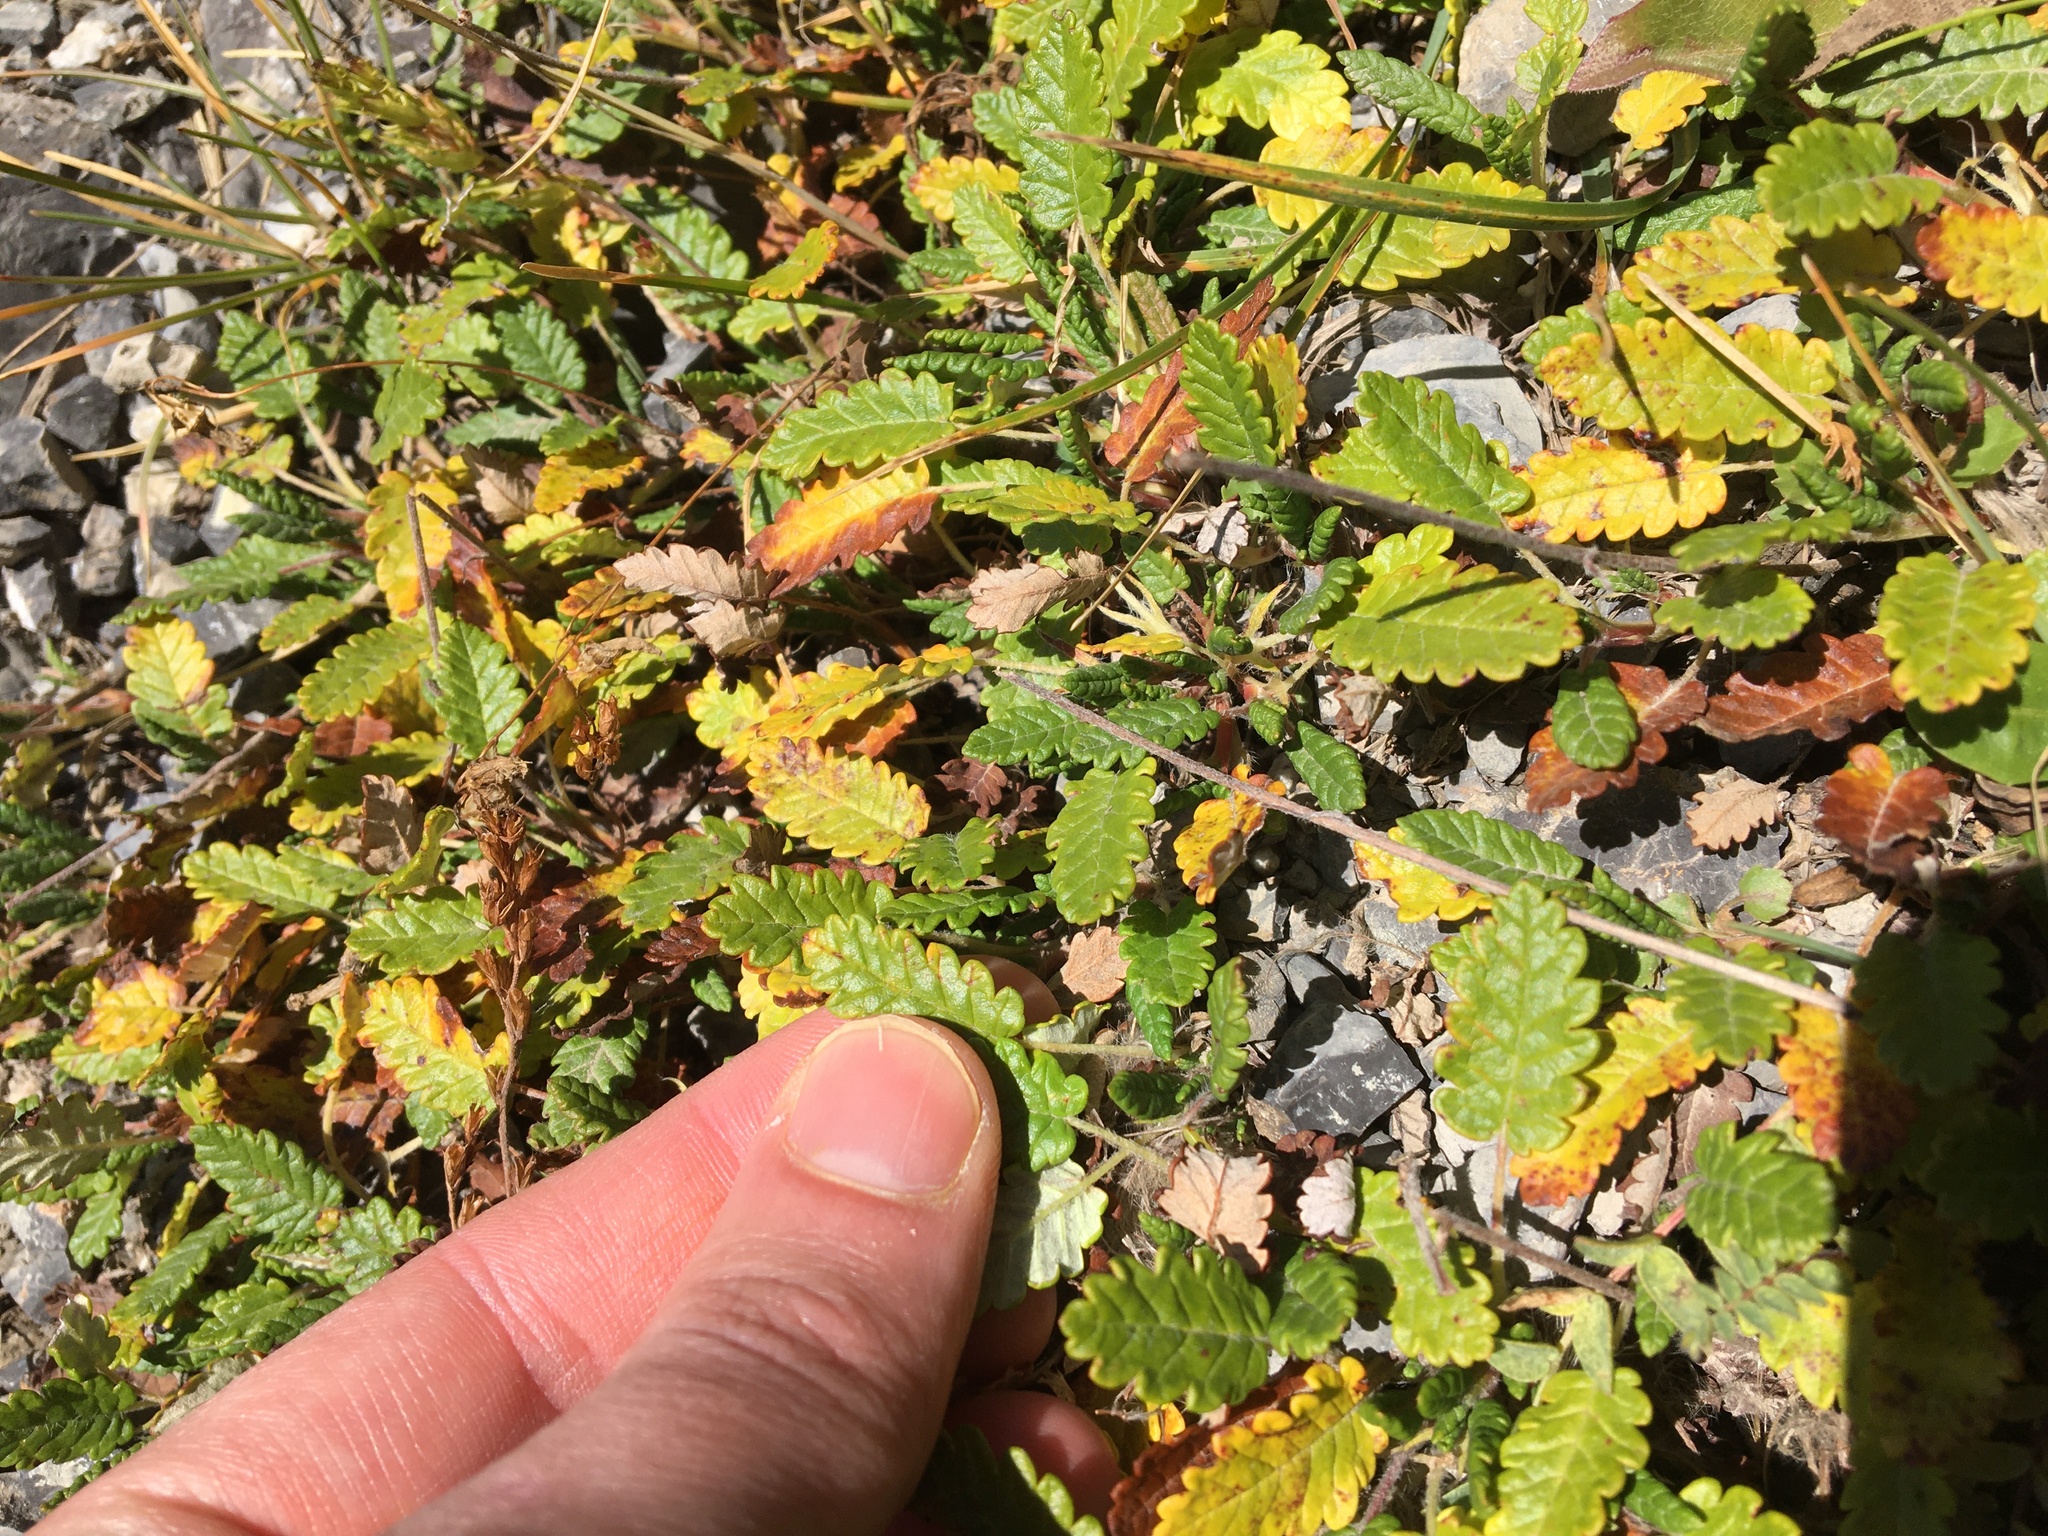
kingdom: Plantae
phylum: Tracheophyta
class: Magnoliopsida
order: Rosales
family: Rosaceae
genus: Dryas
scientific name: Dryas octopetala
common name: Eight-petal mountain-avens
